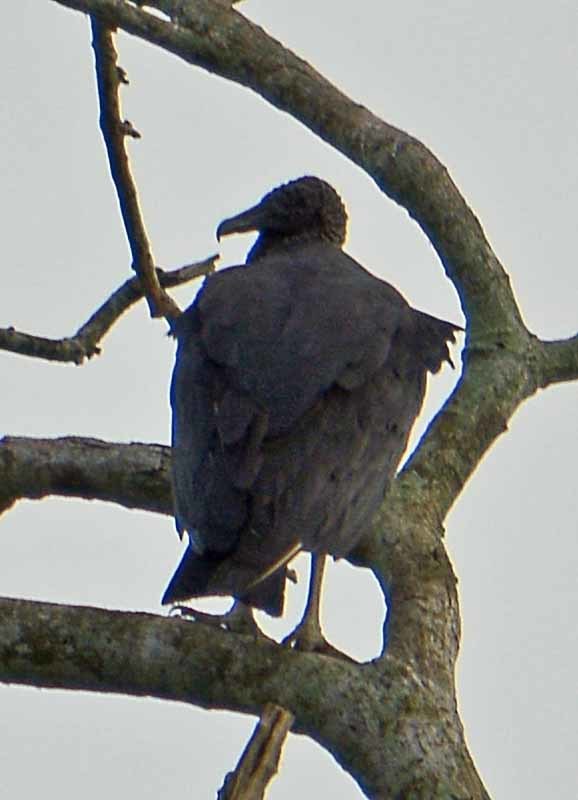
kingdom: Animalia
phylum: Chordata
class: Aves
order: Accipitriformes
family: Cathartidae
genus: Coragyps
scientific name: Coragyps atratus
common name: Black vulture
